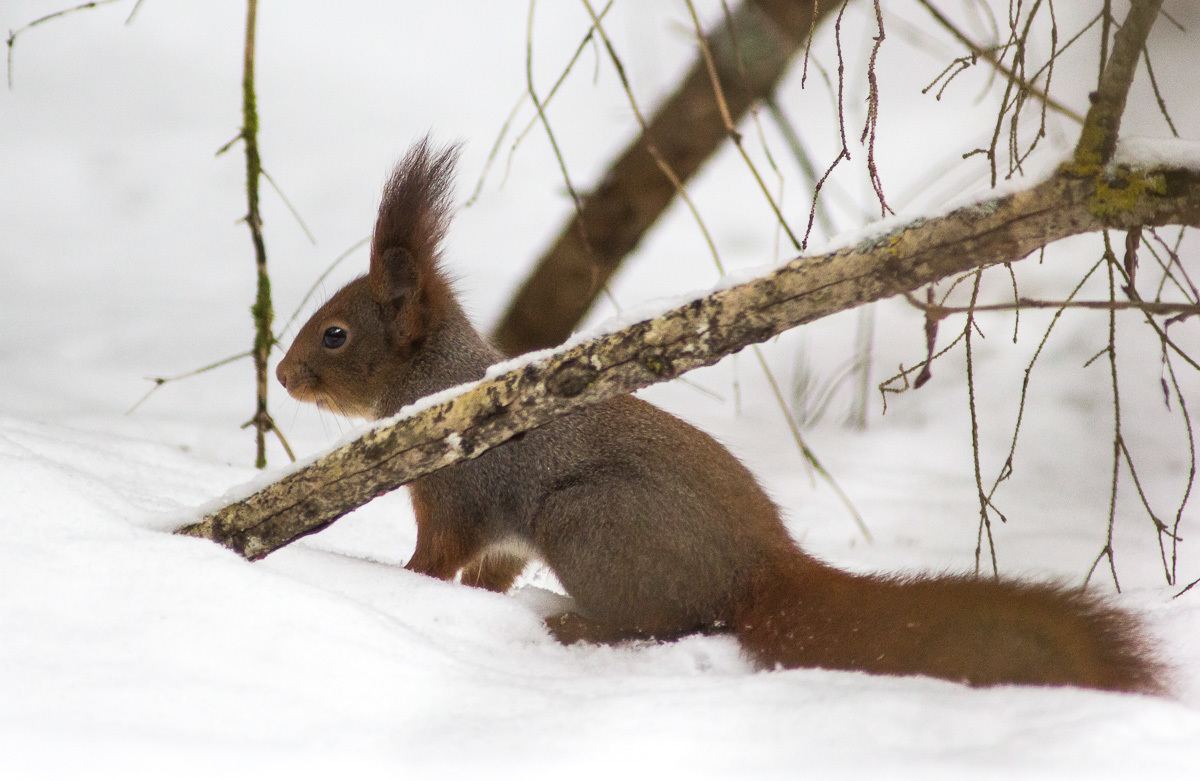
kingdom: Animalia
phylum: Chordata
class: Mammalia
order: Rodentia
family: Sciuridae
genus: Sciurus
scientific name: Sciurus vulgaris
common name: Eurasian red squirrel
